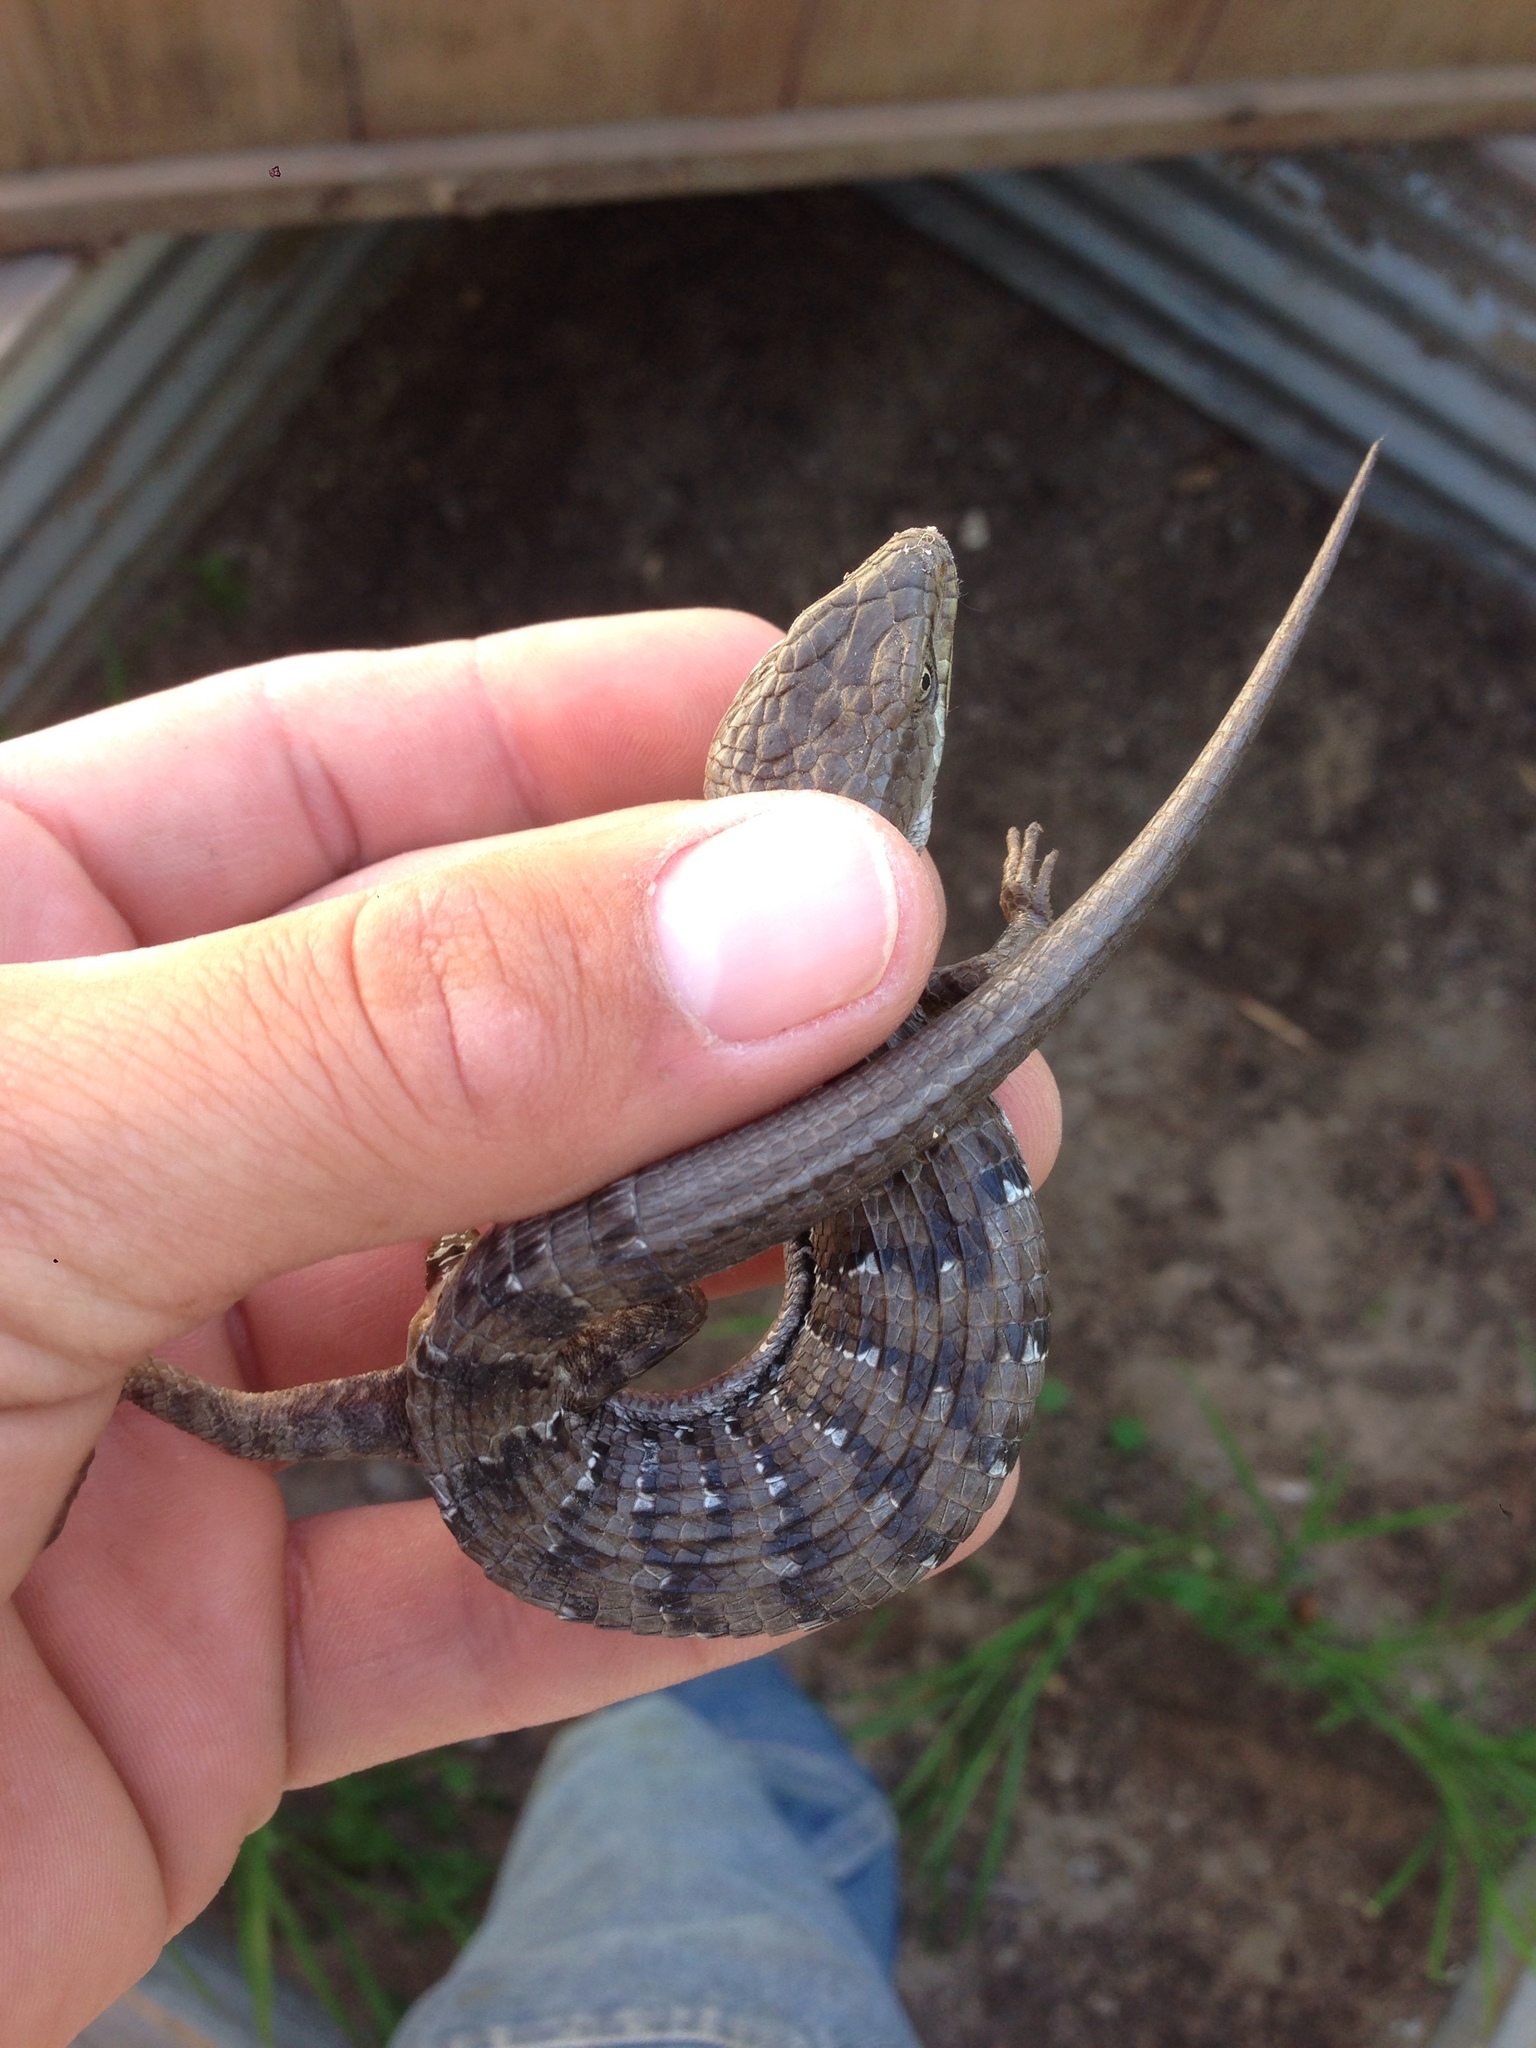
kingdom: Animalia
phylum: Chordata
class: Squamata
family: Anguidae
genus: Elgaria
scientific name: Elgaria multicarinata
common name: Southern alligator lizard
